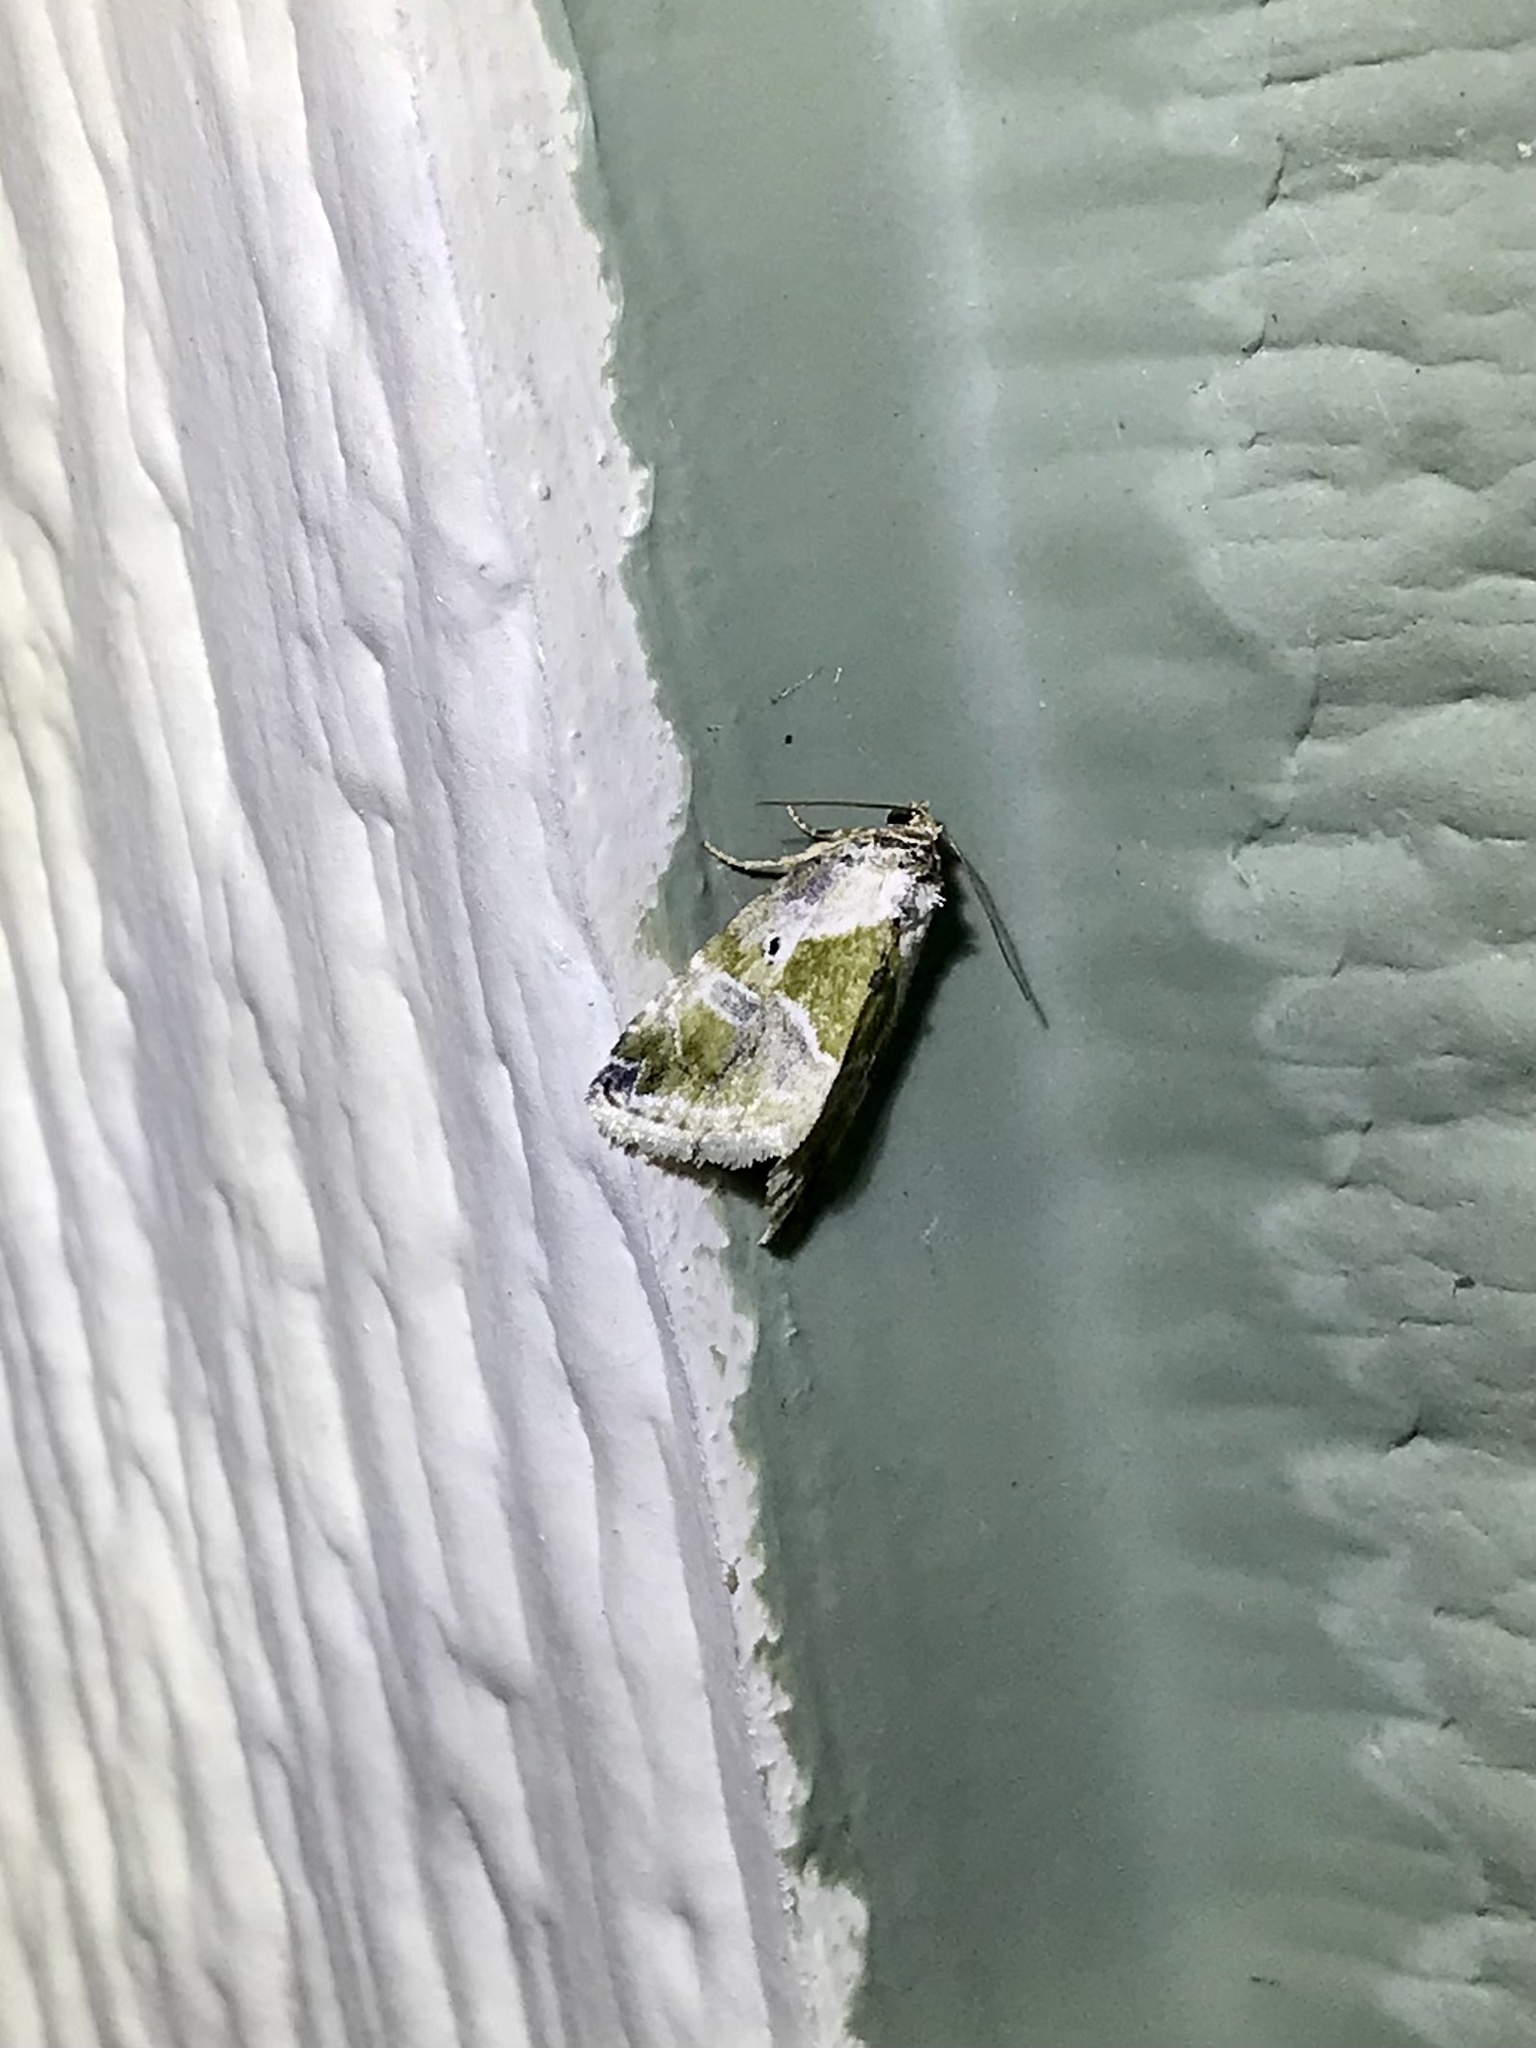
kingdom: Animalia
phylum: Arthropoda
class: Insecta
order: Lepidoptera
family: Noctuidae
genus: Maliattha
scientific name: Maliattha synochitis
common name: Black-dotted glyph
